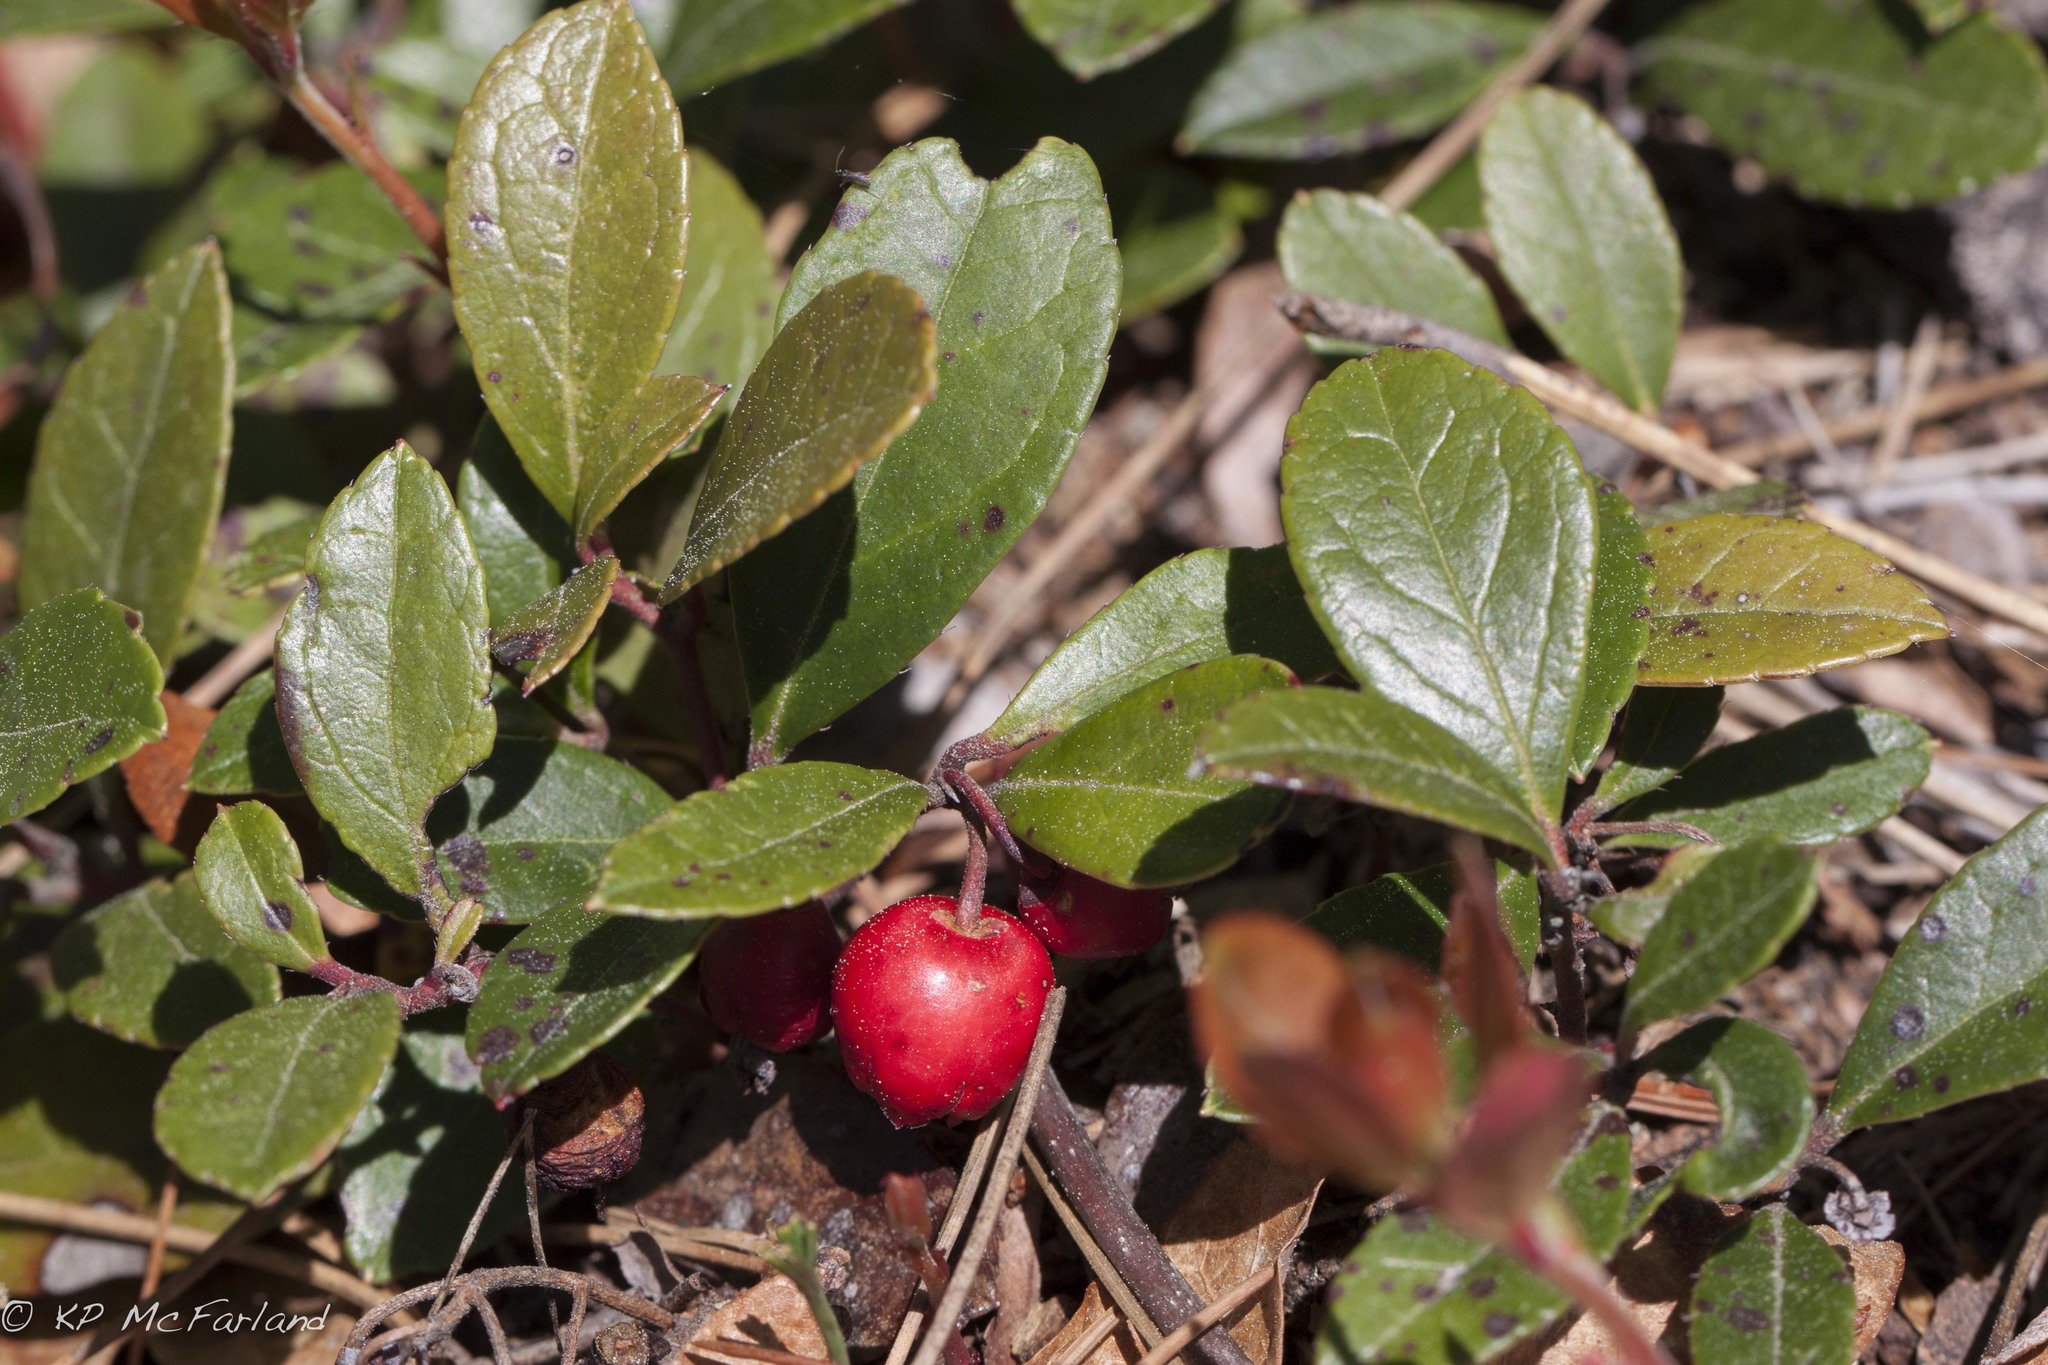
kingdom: Plantae
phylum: Tracheophyta
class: Magnoliopsida
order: Ericales
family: Ericaceae
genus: Gaultheria
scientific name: Gaultheria procumbens
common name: Checkerberry
